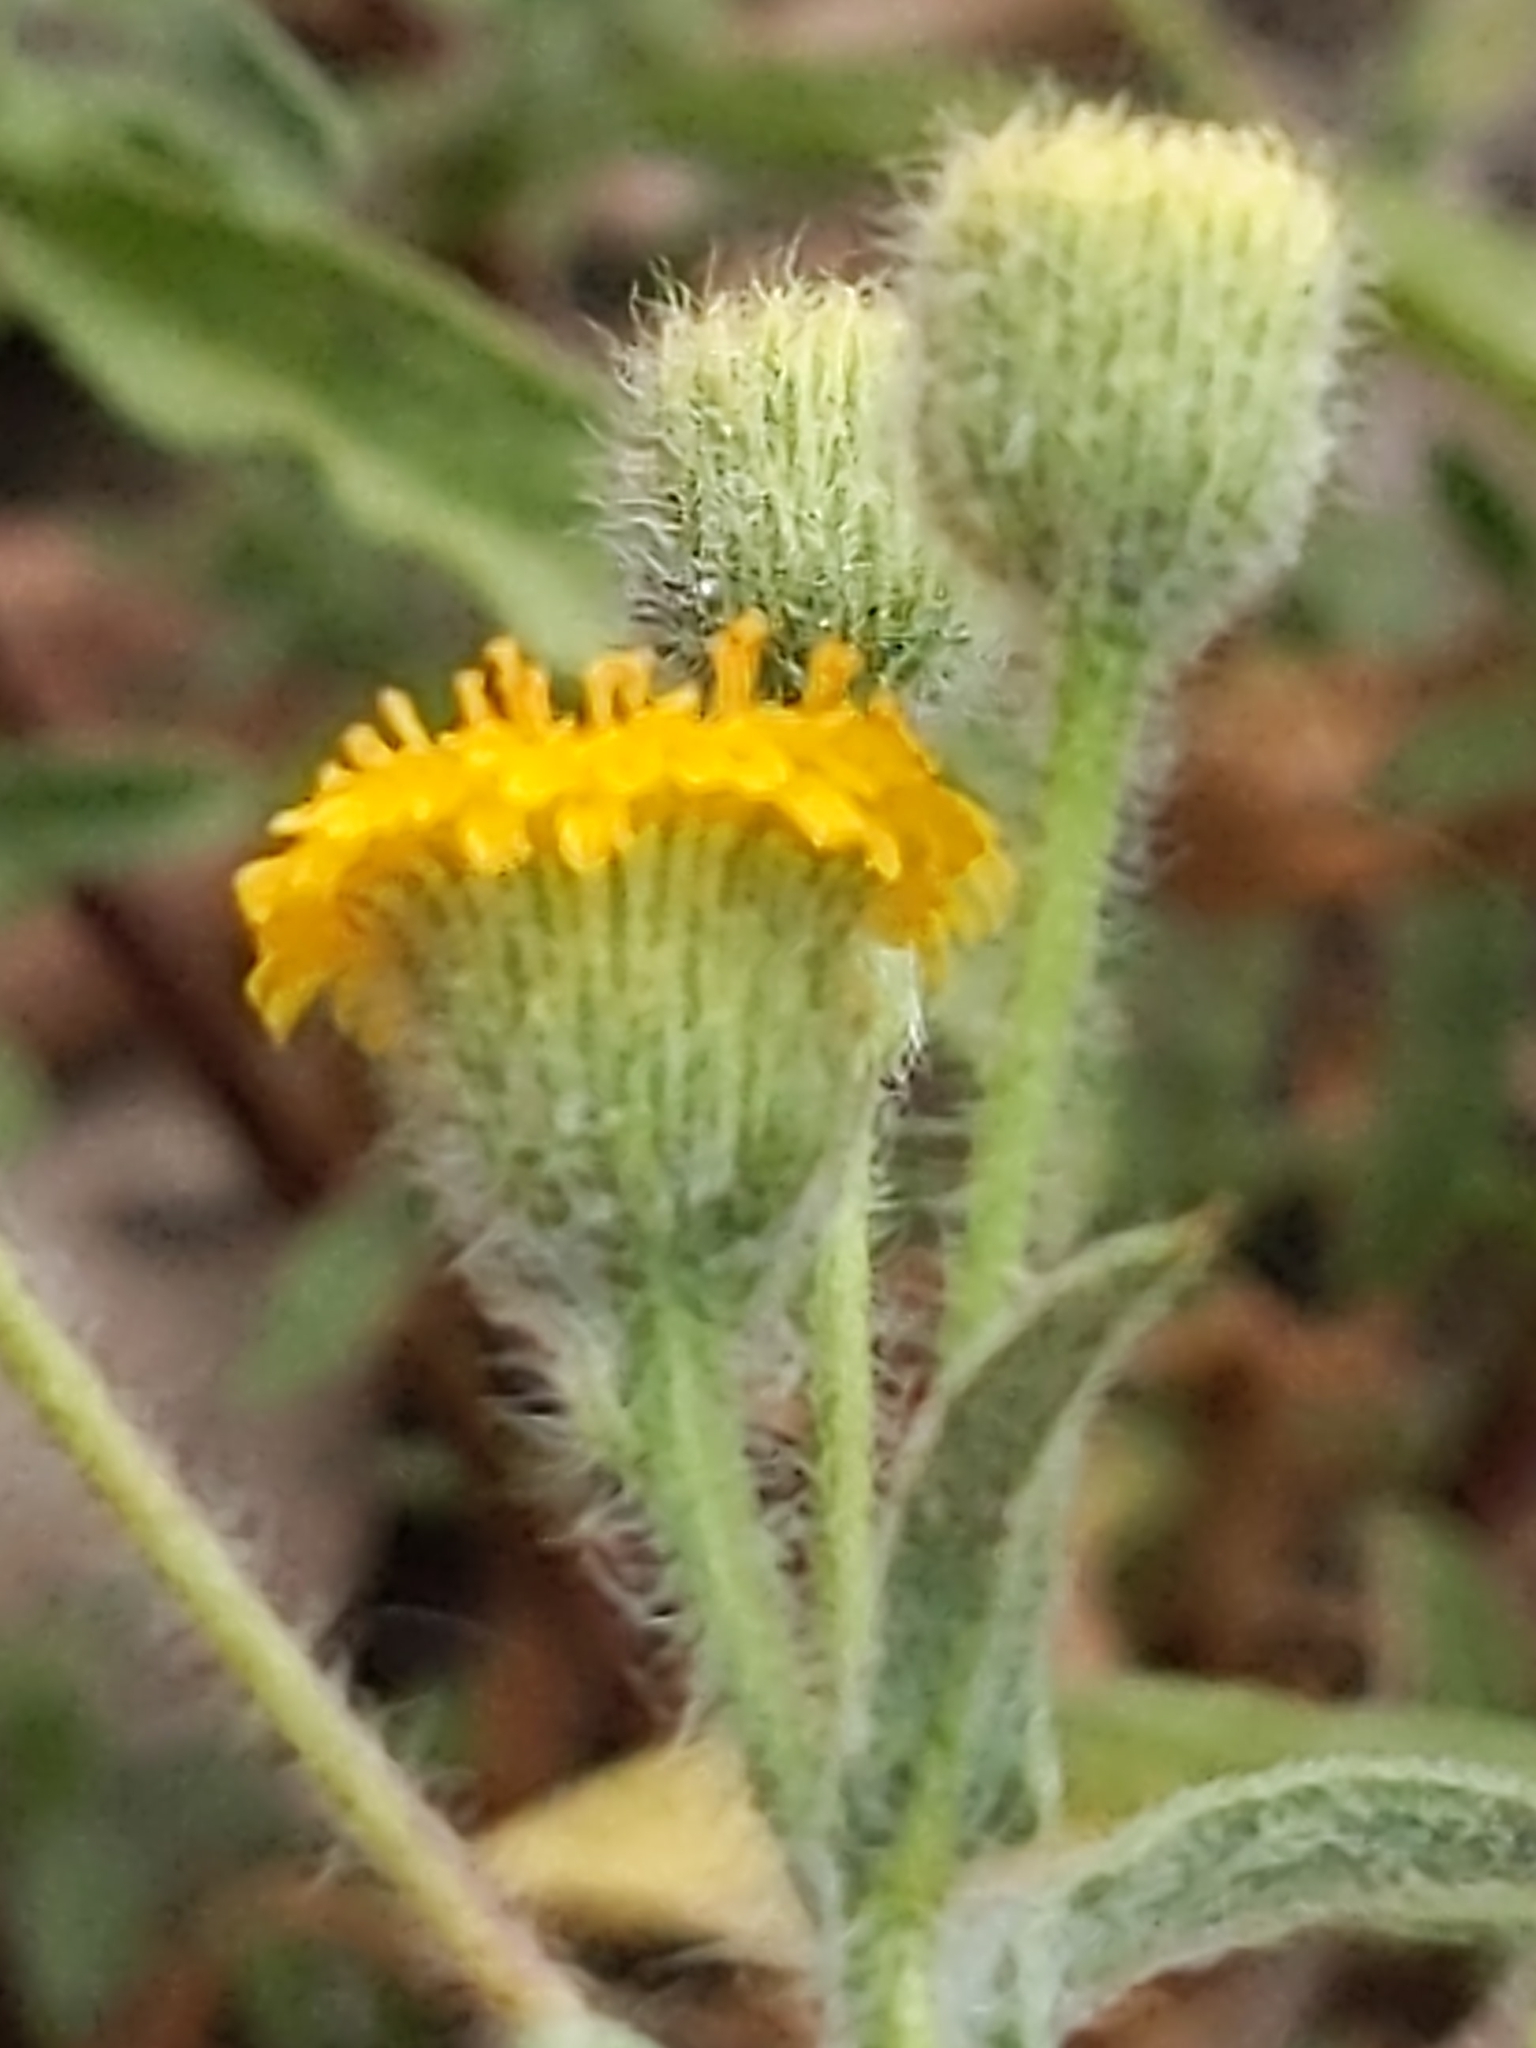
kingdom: Plantae
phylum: Tracheophyta
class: Magnoliopsida
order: Asterales
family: Asteraceae
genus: Pulicaria
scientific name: Pulicaria paludosa
